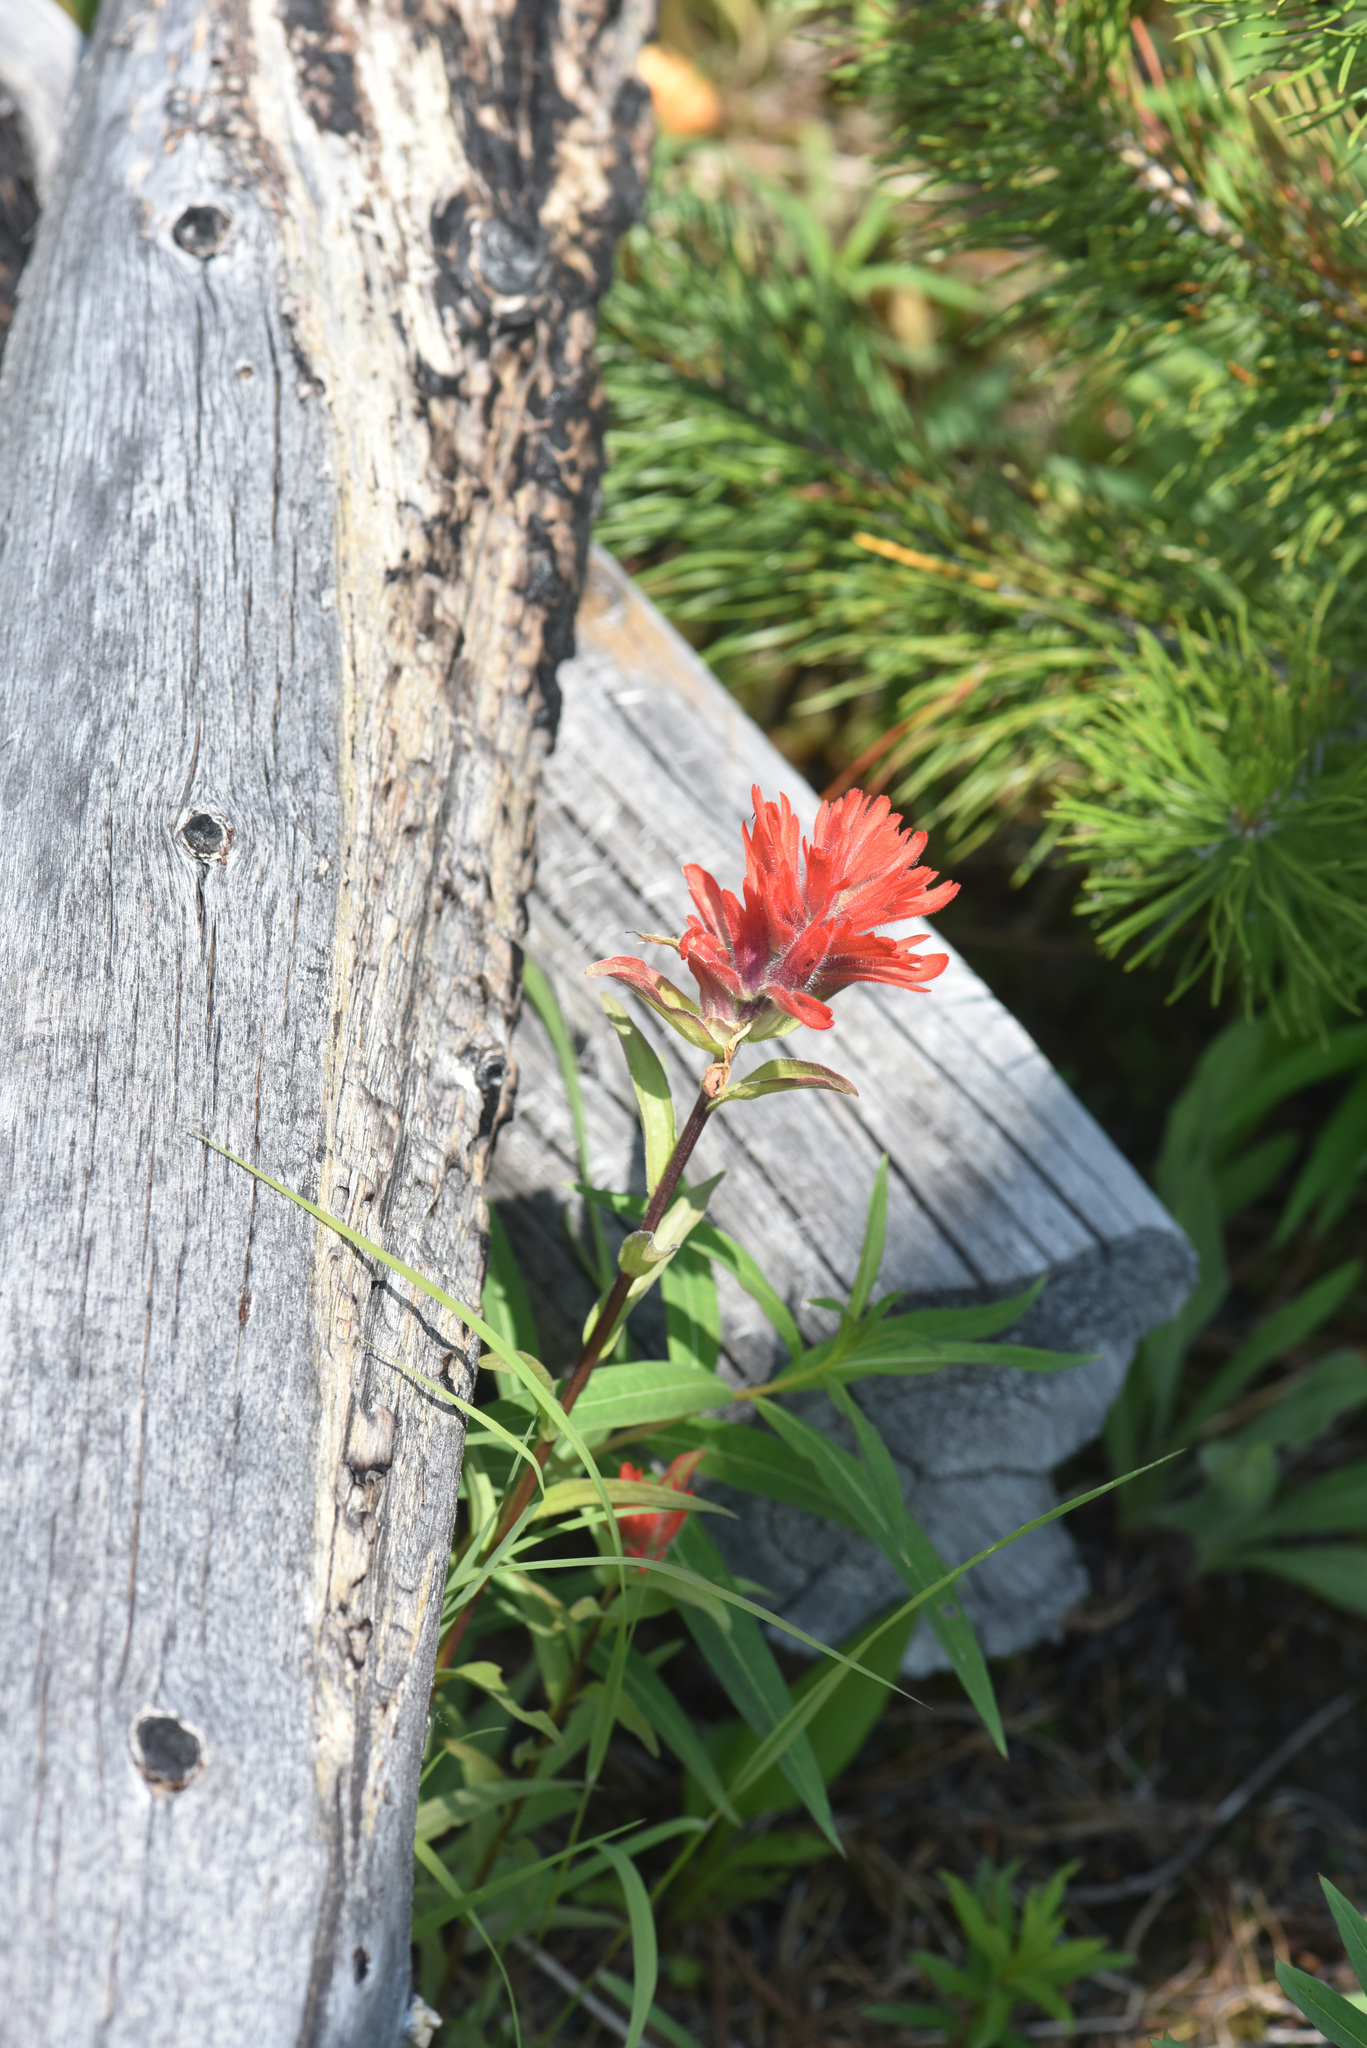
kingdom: Plantae
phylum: Tracheophyta
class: Magnoliopsida
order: Lamiales
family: Orobanchaceae
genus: Castilleja
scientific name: Castilleja miniata
